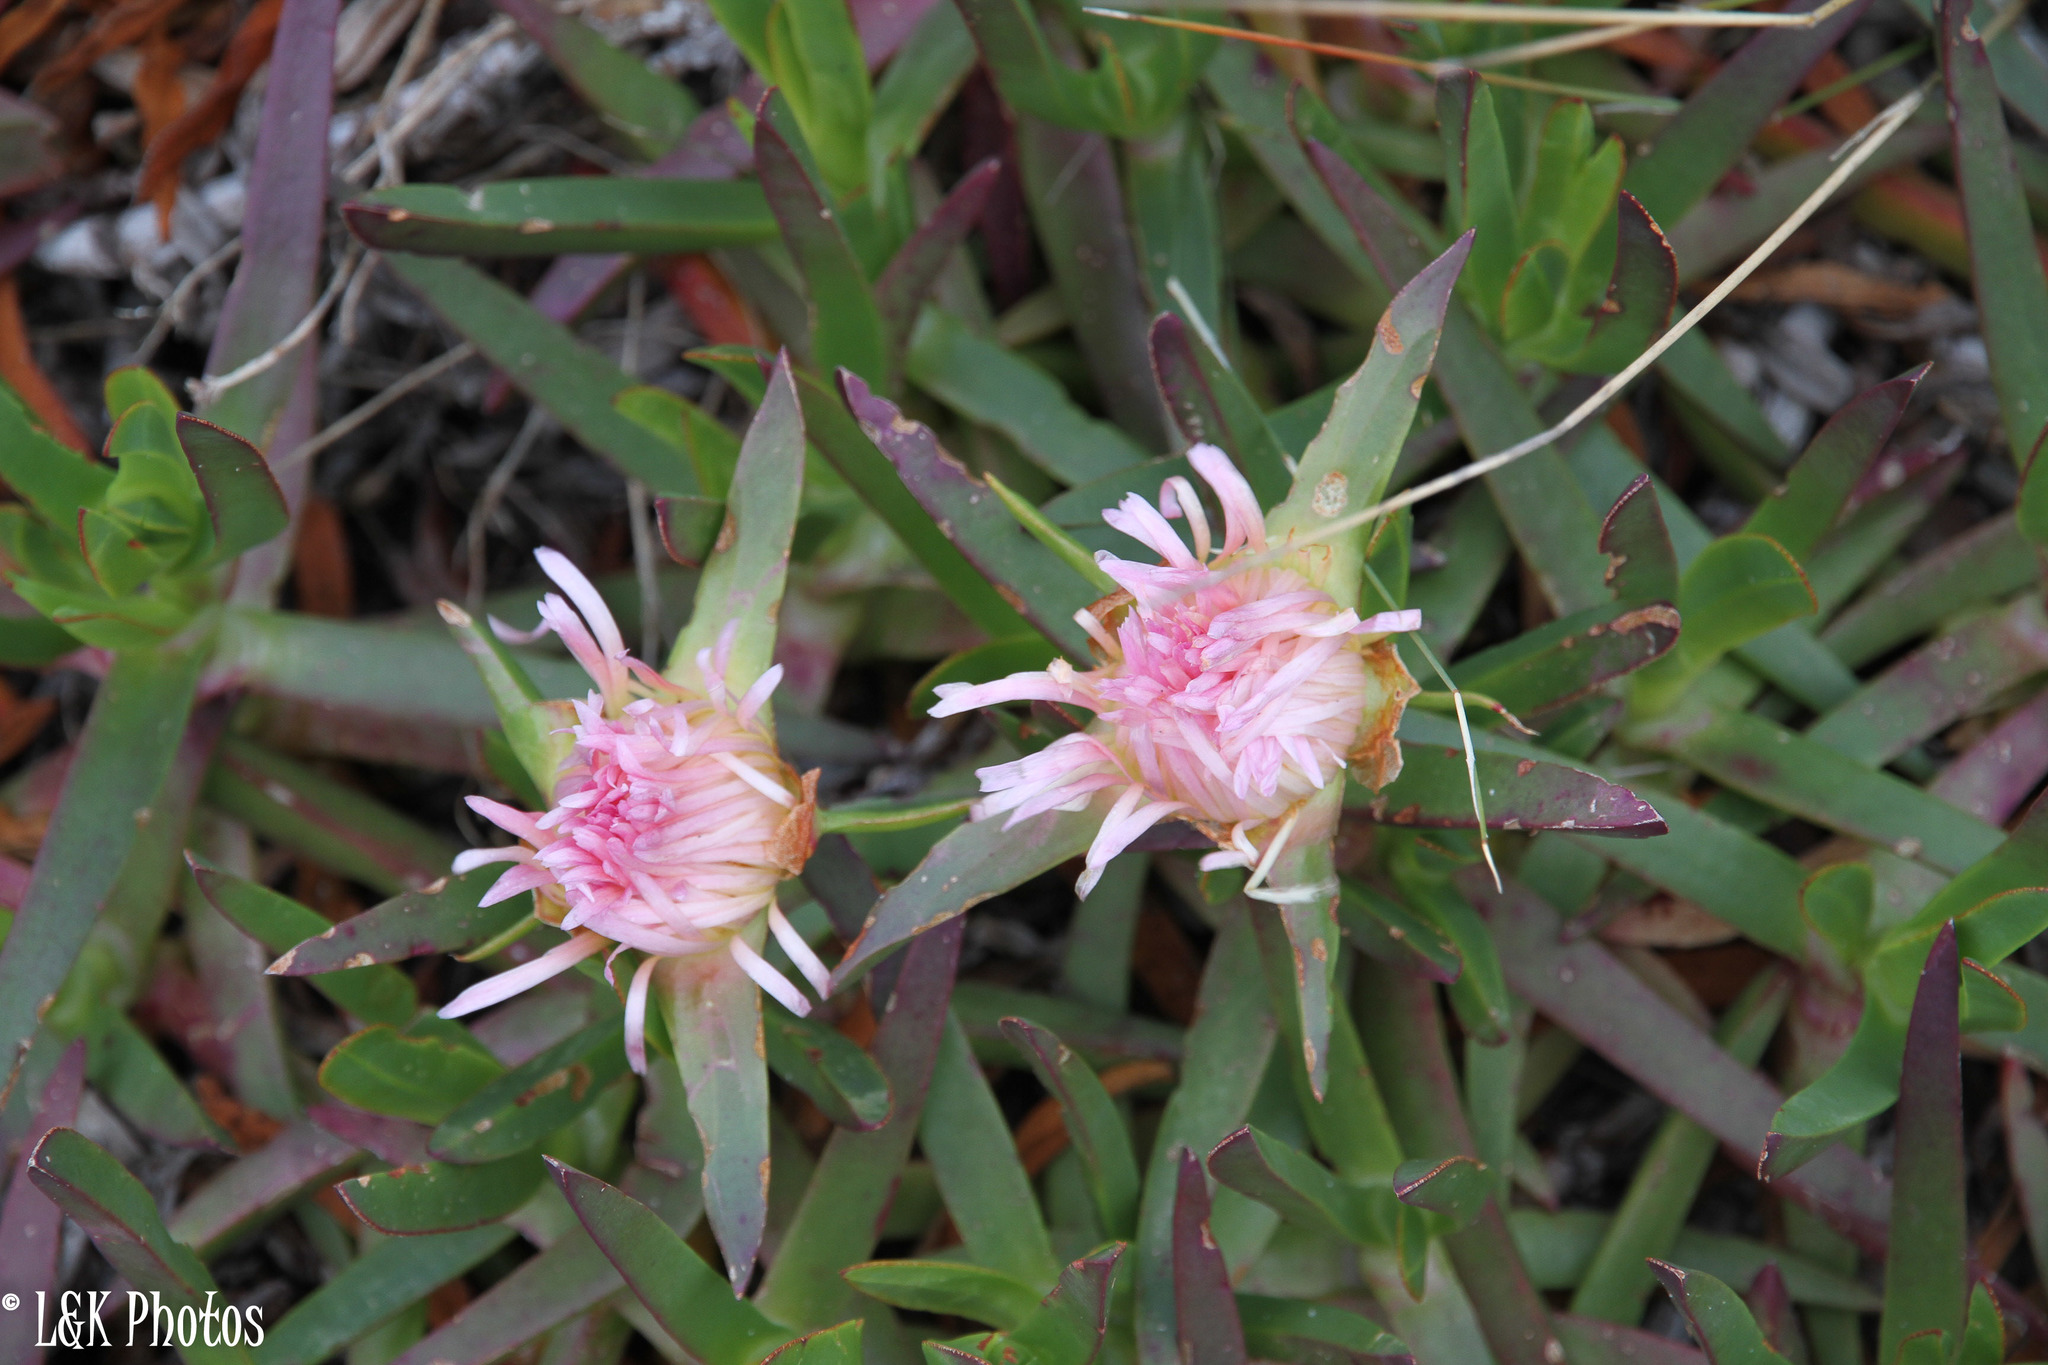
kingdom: Plantae
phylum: Tracheophyta
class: Magnoliopsida
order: Caryophyllales
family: Aizoaceae
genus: Carpobrotus
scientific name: Carpobrotus edulis
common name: Hottentot-fig
